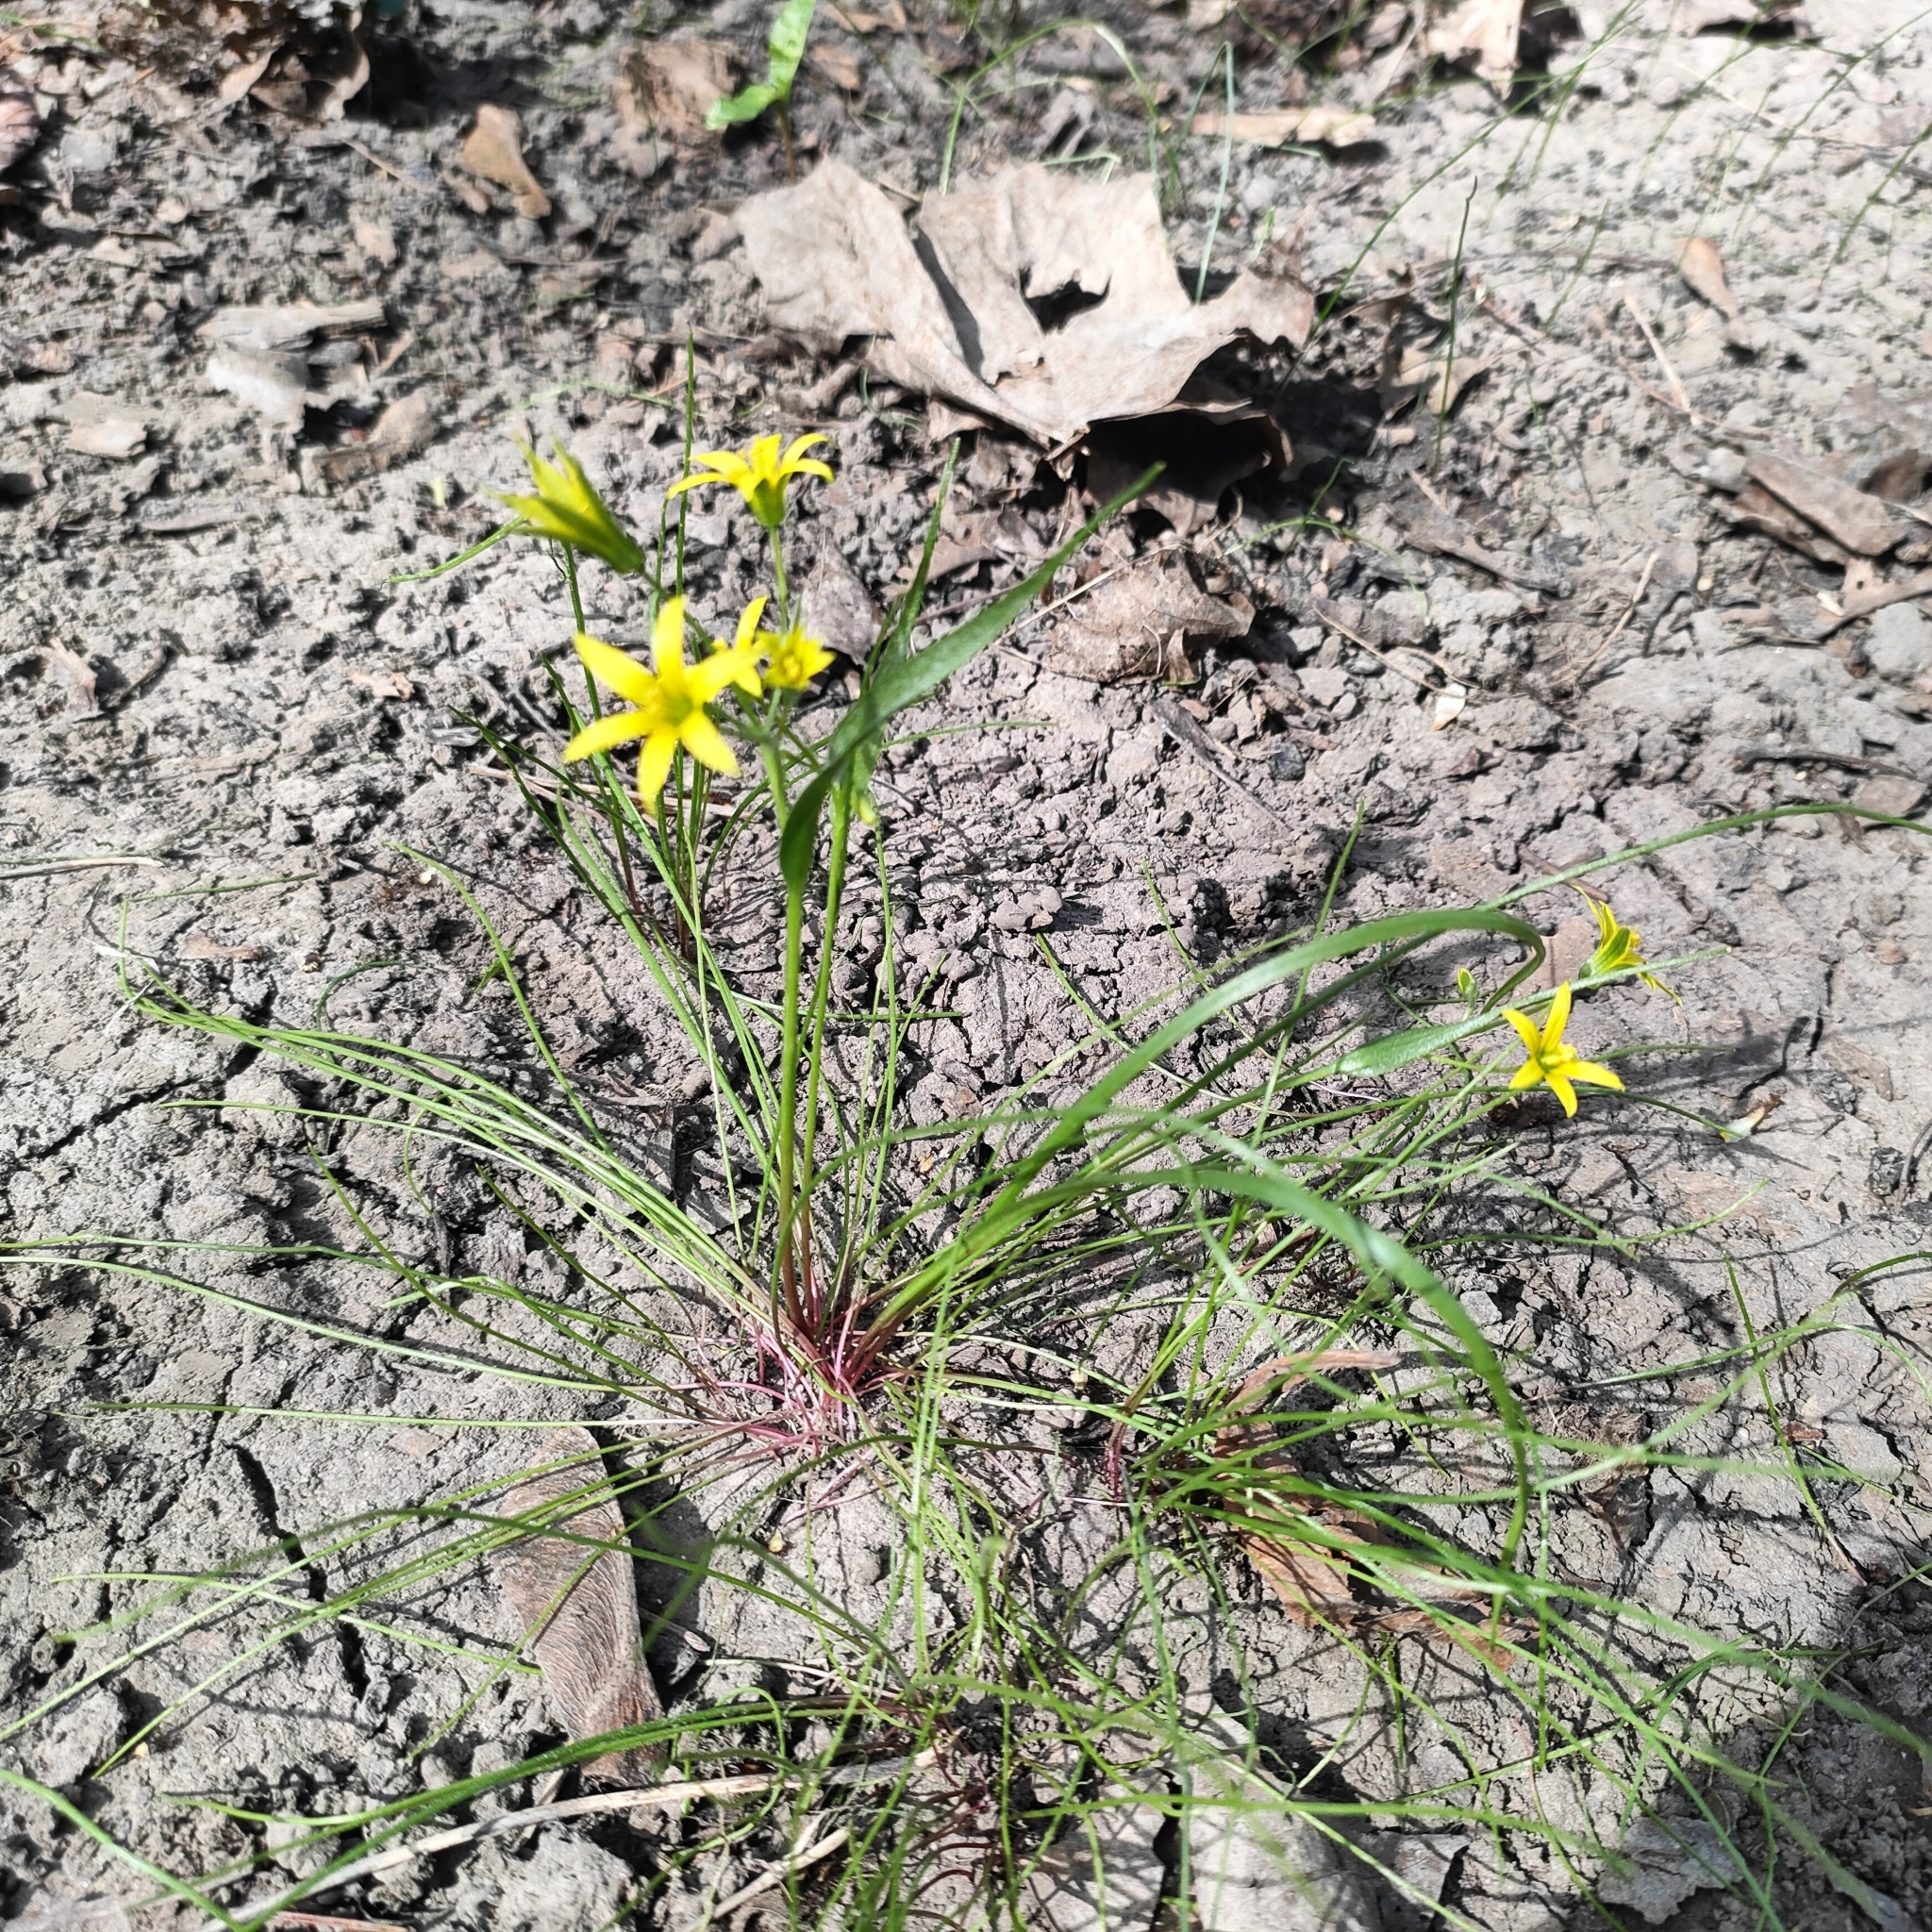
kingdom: Plantae
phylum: Tracheophyta
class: Liliopsida
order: Liliales
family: Liliaceae
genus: Gagea
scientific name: Gagea minima
